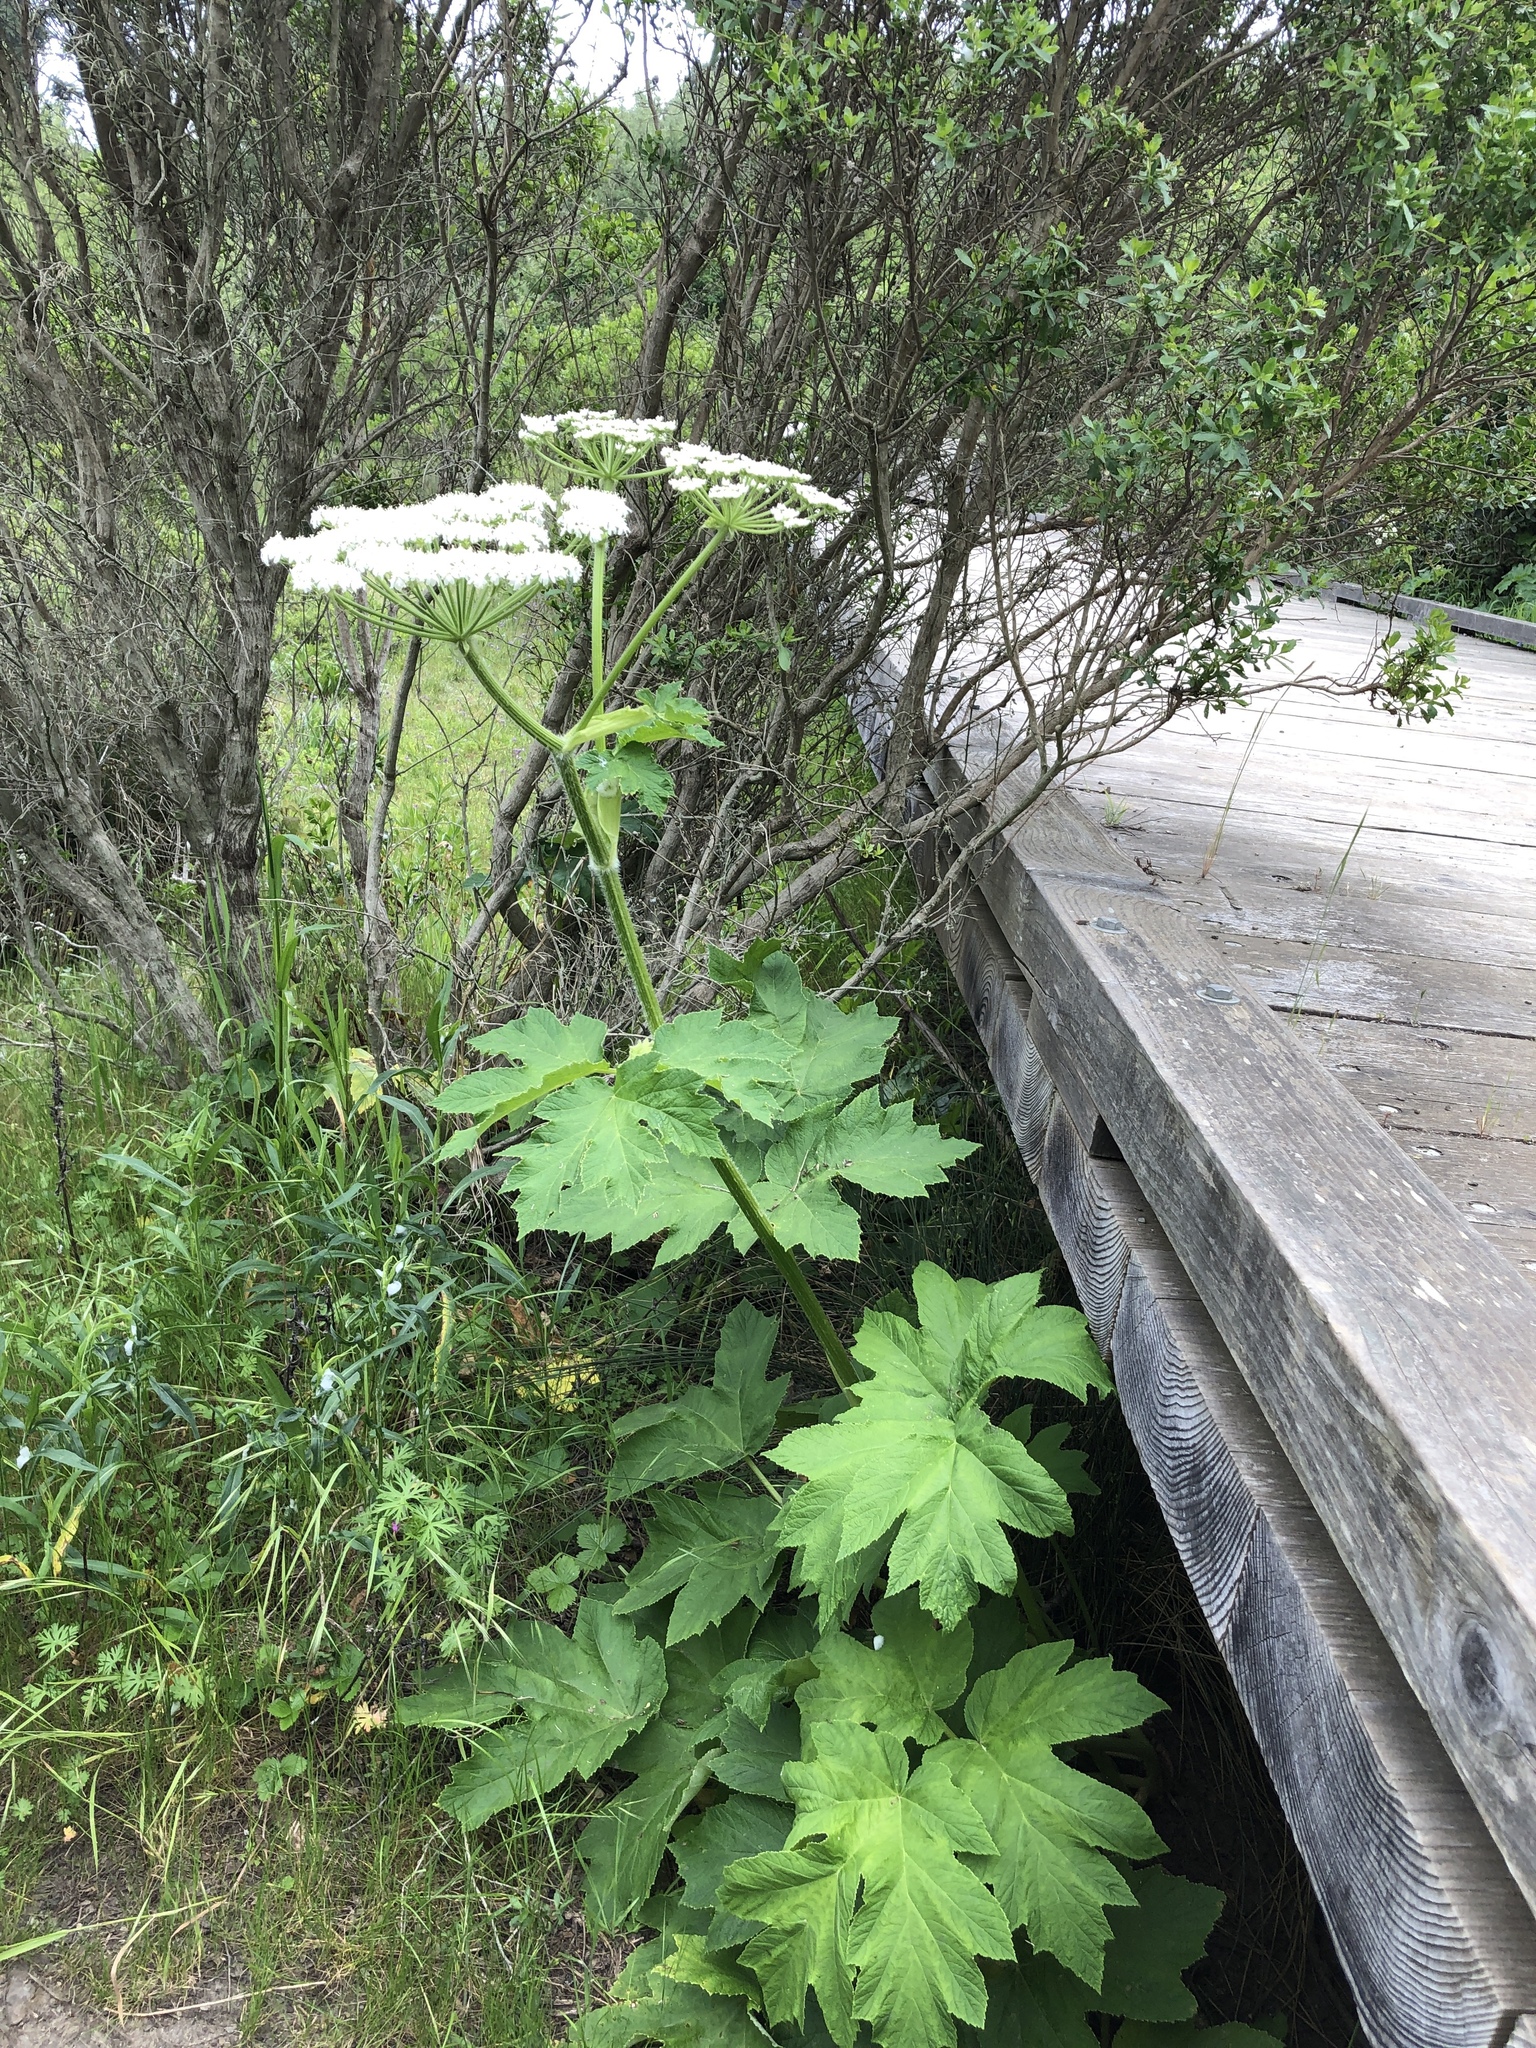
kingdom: Plantae
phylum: Tracheophyta
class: Magnoliopsida
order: Apiales
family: Apiaceae
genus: Heracleum
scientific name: Heracleum maximum
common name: American cow parsnip
